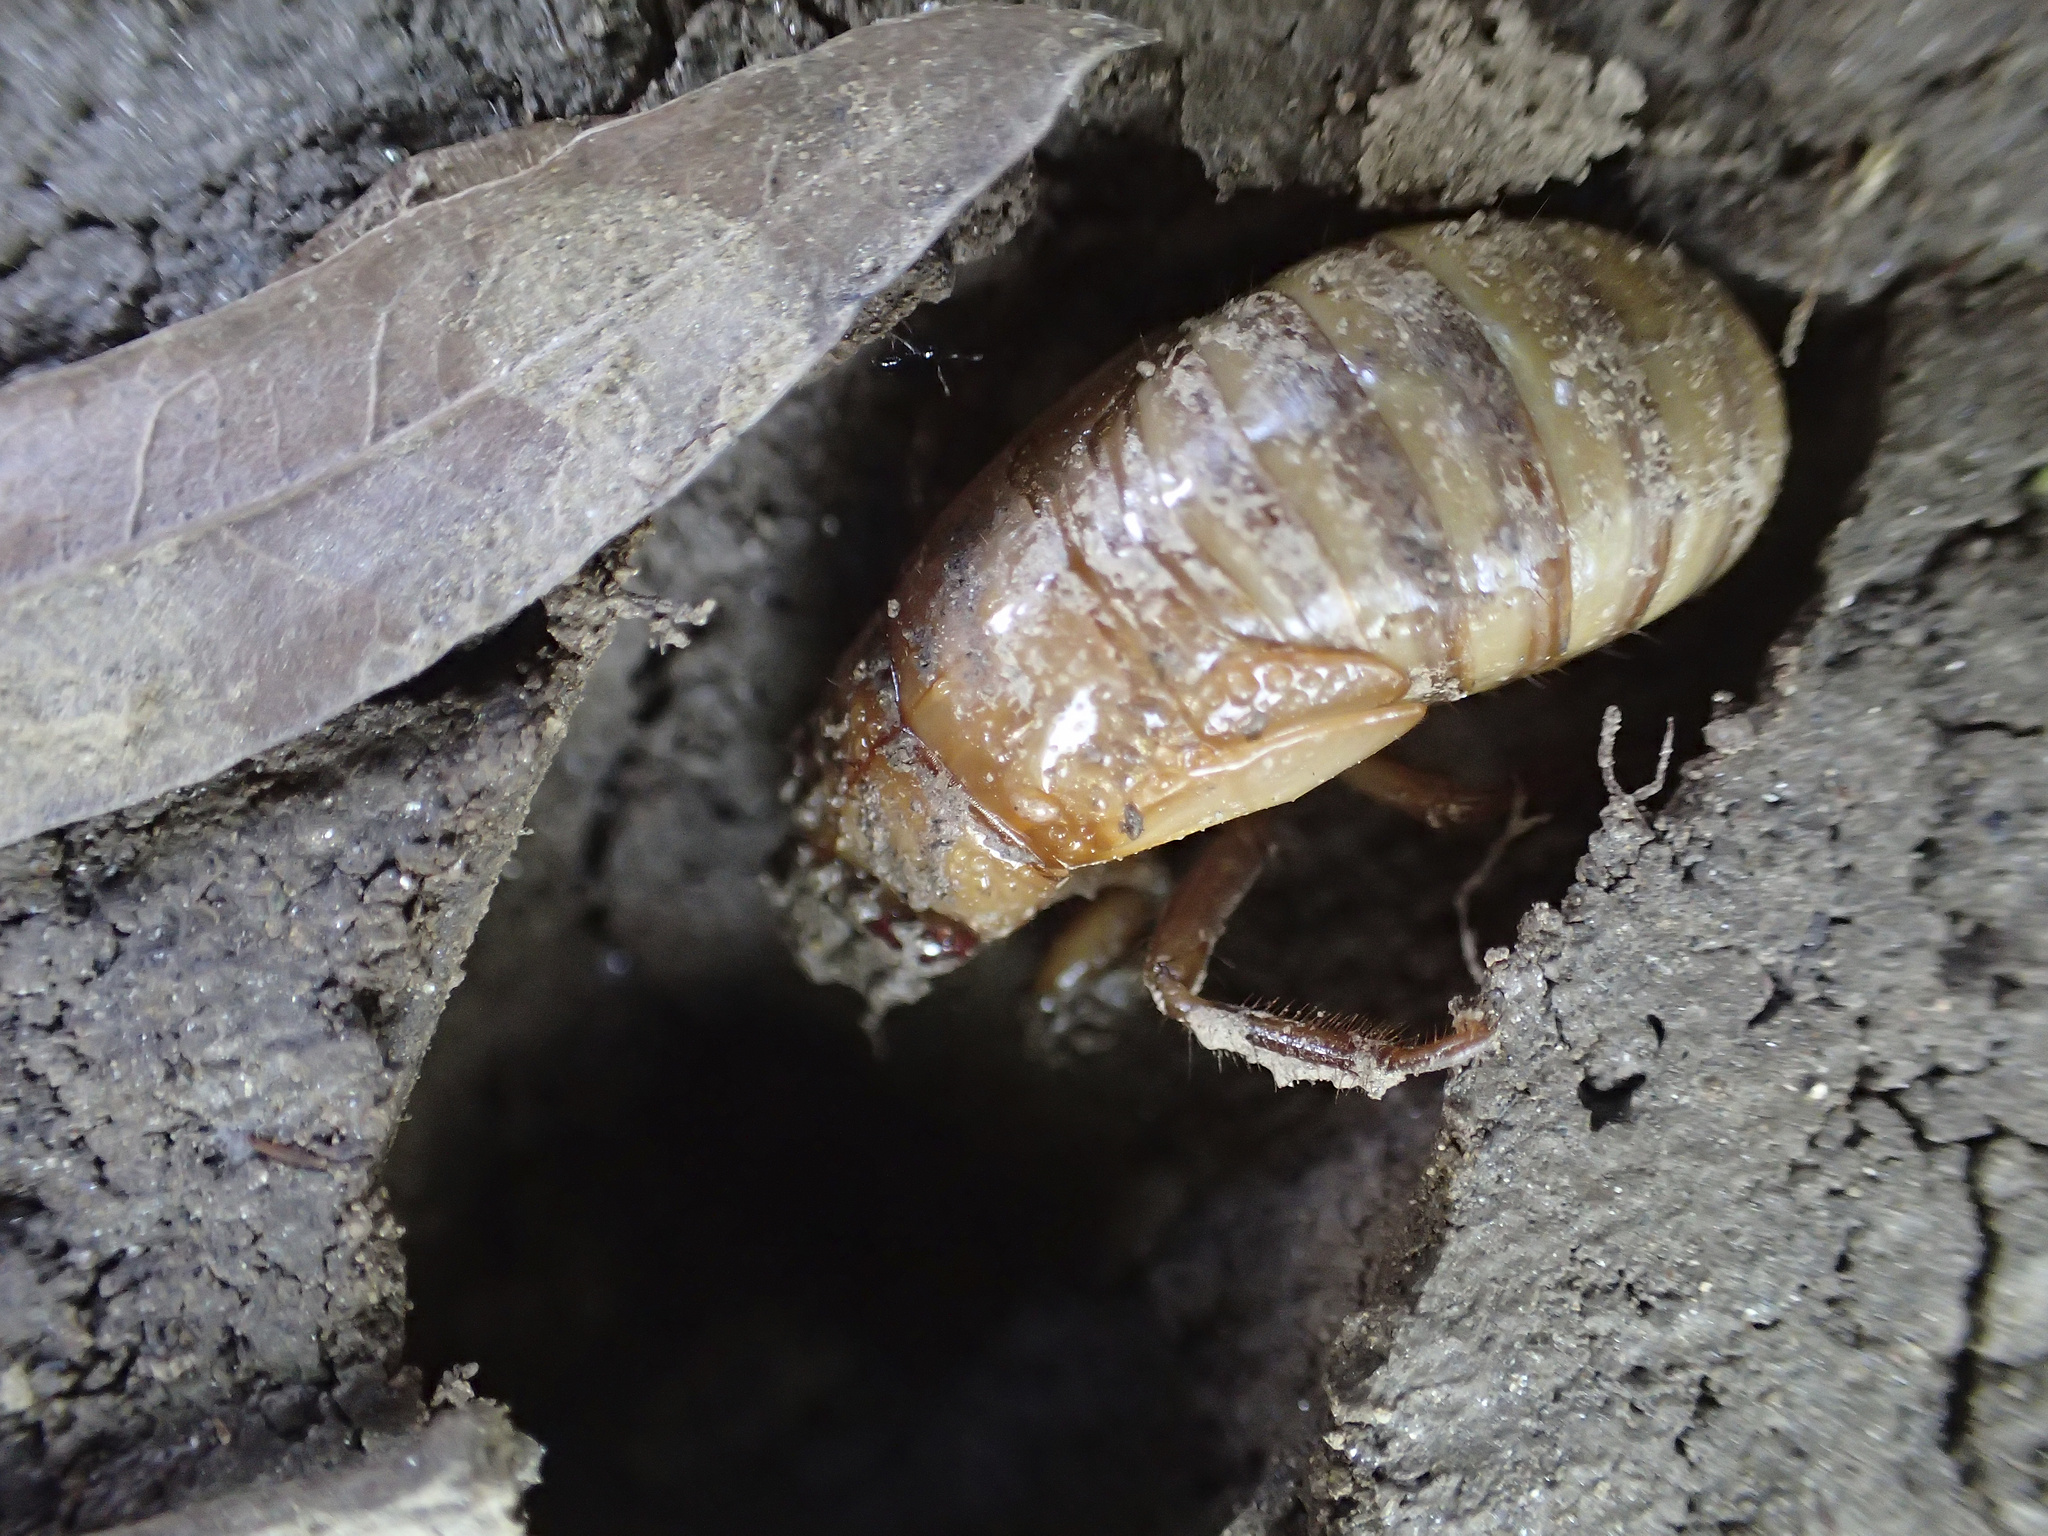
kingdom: Animalia
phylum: Arthropoda
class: Insecta
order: Hemiptera
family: Cicadidae
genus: Magicicada
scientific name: Magicicada
